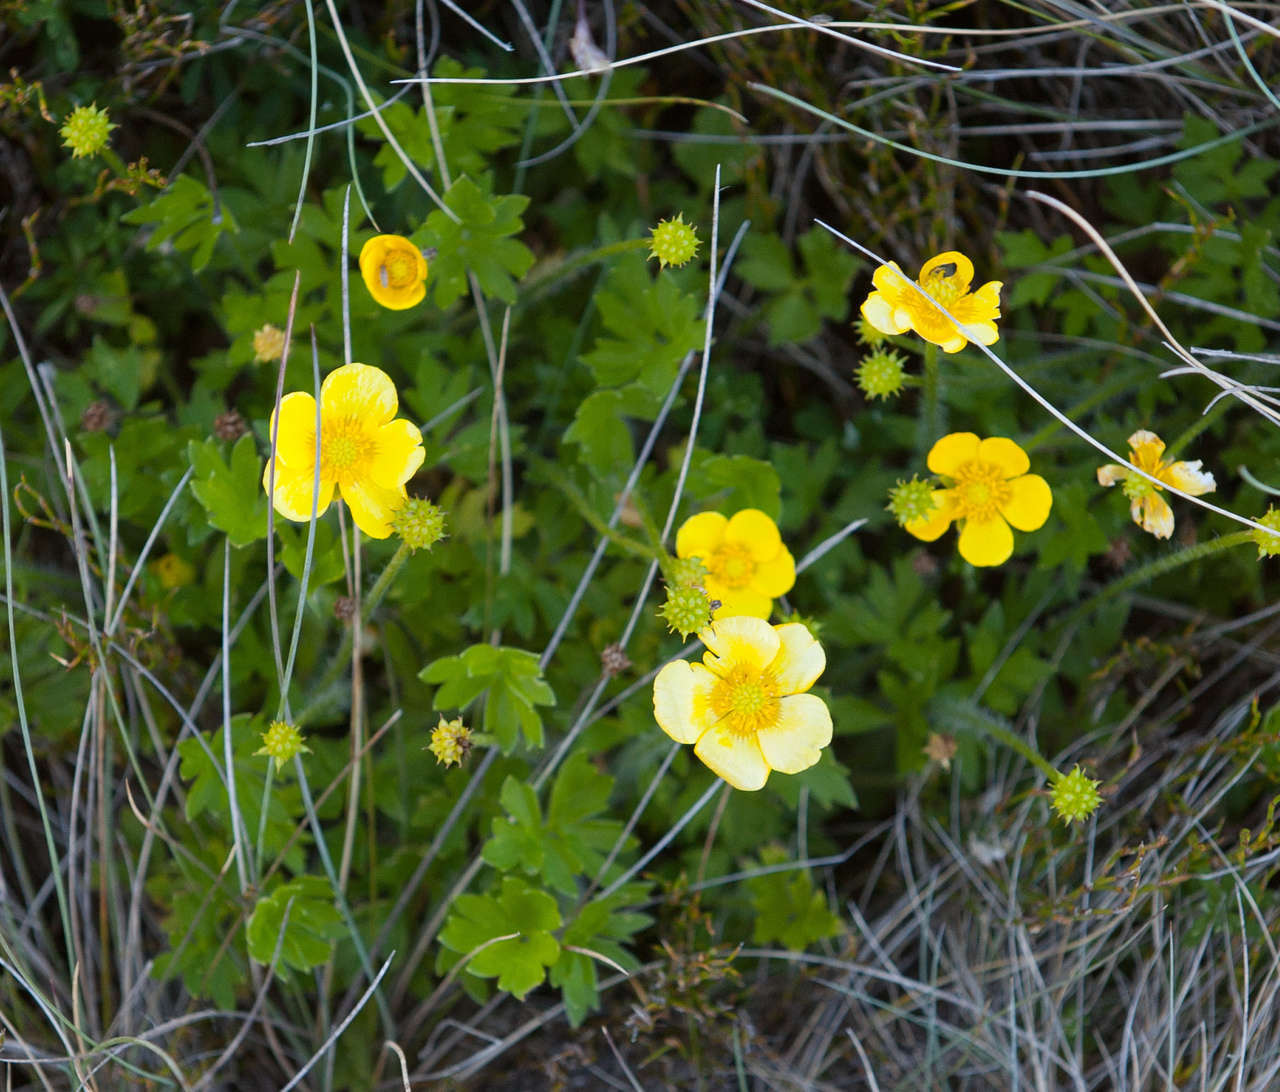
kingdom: Plantae
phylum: Tracheophyta
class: Magnoliopsida
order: Ranunculales
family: Ranunculaceae
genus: Ranunculus
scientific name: Ranunculus graniticola
